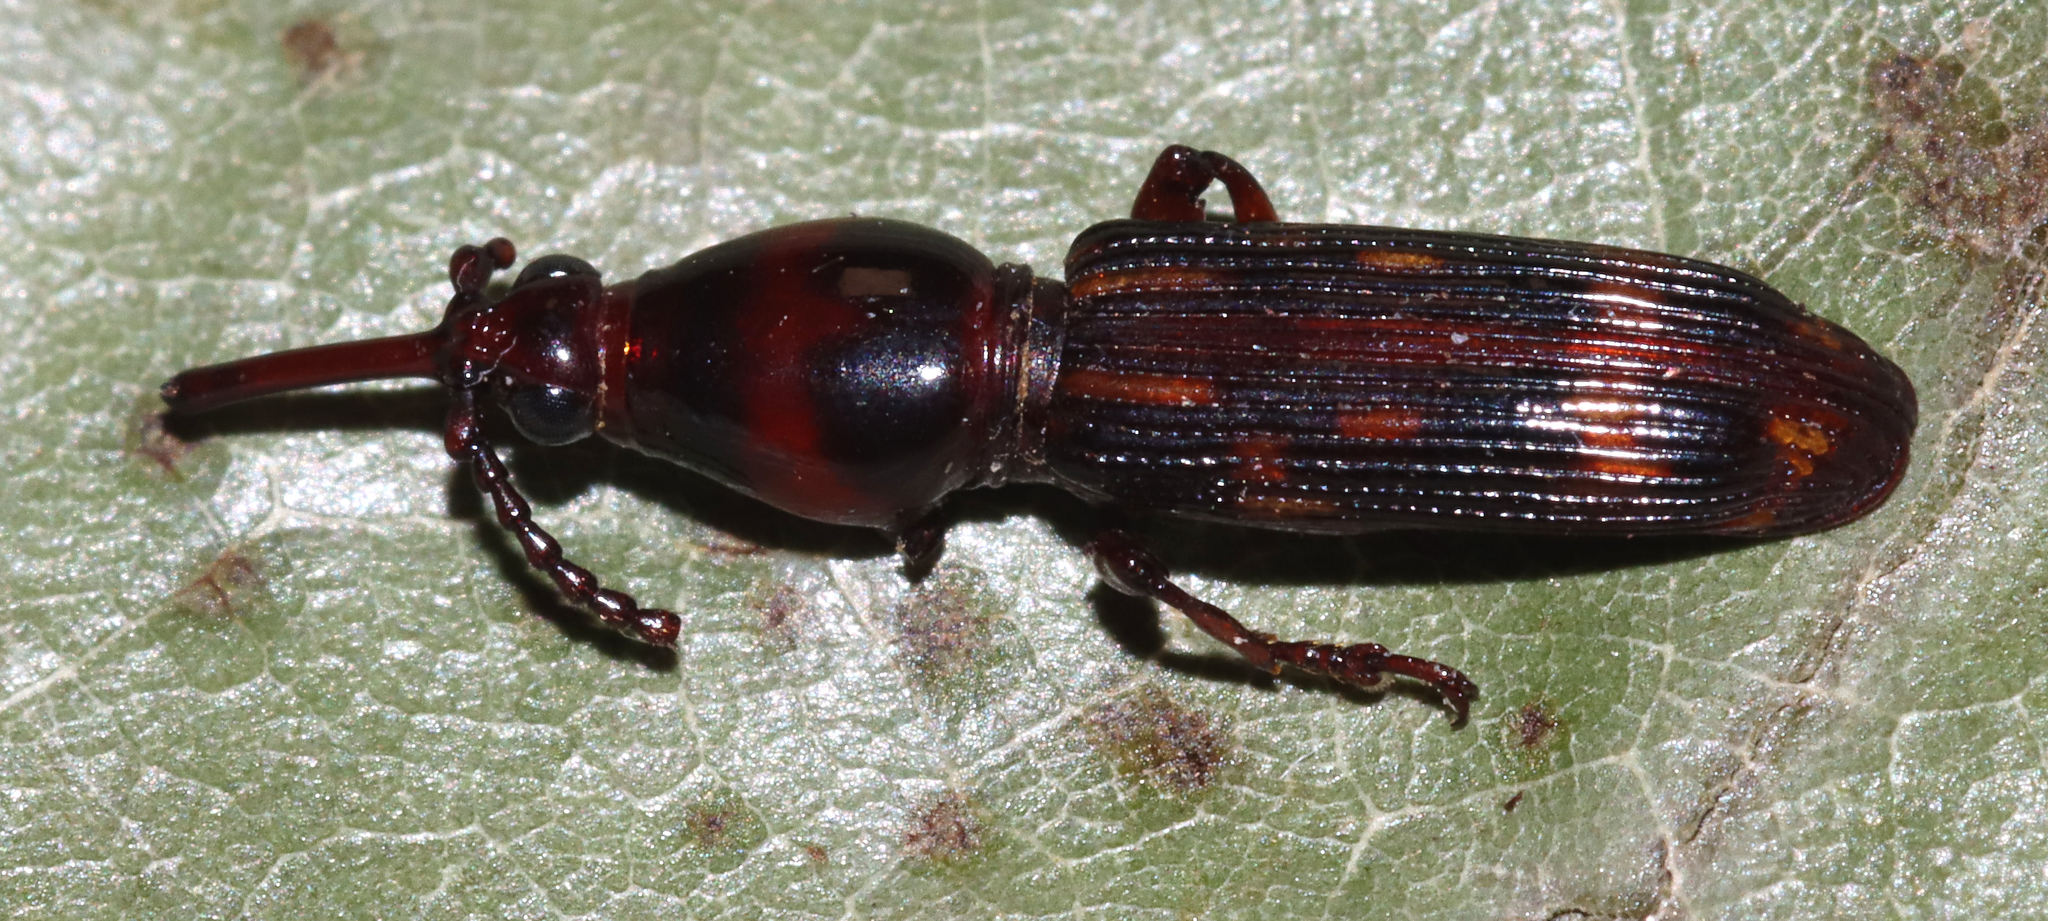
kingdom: Animalia
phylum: Arthropoda
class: Insecta
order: Coleoptera
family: Brentidae
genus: Arrenodes
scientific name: Arrenodes minutus
